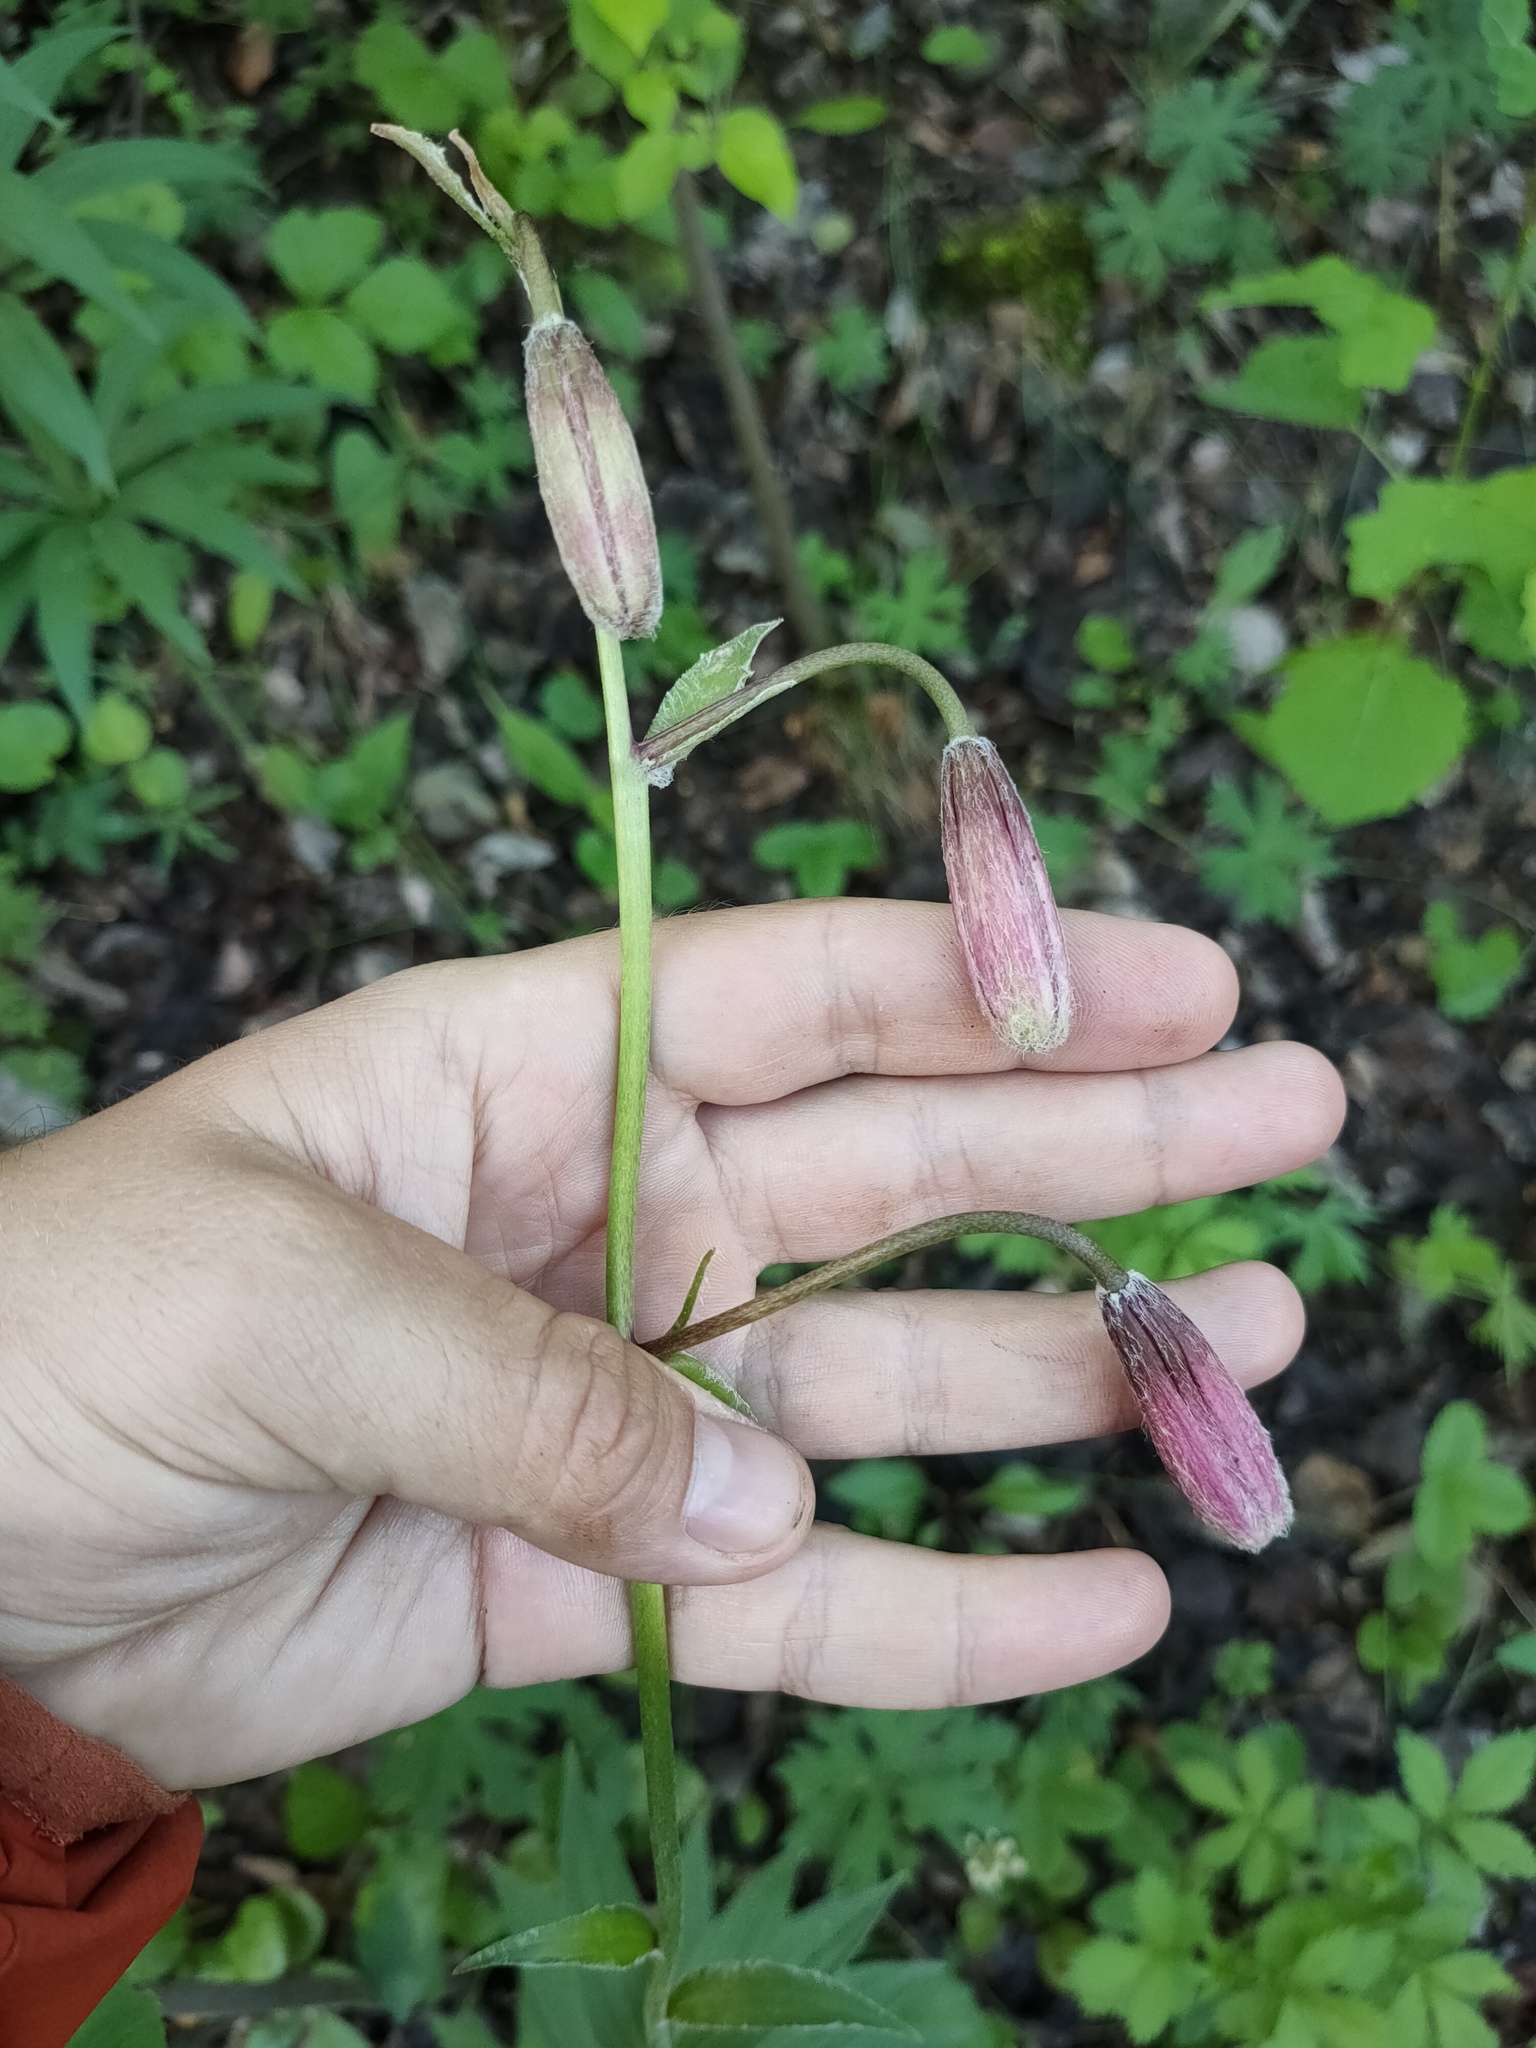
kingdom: Plantae
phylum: Tracheophyta
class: Liliopsida
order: Liliales
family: Liliaceae
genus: Lilium
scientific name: Lilium martagon
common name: Martagon lily
